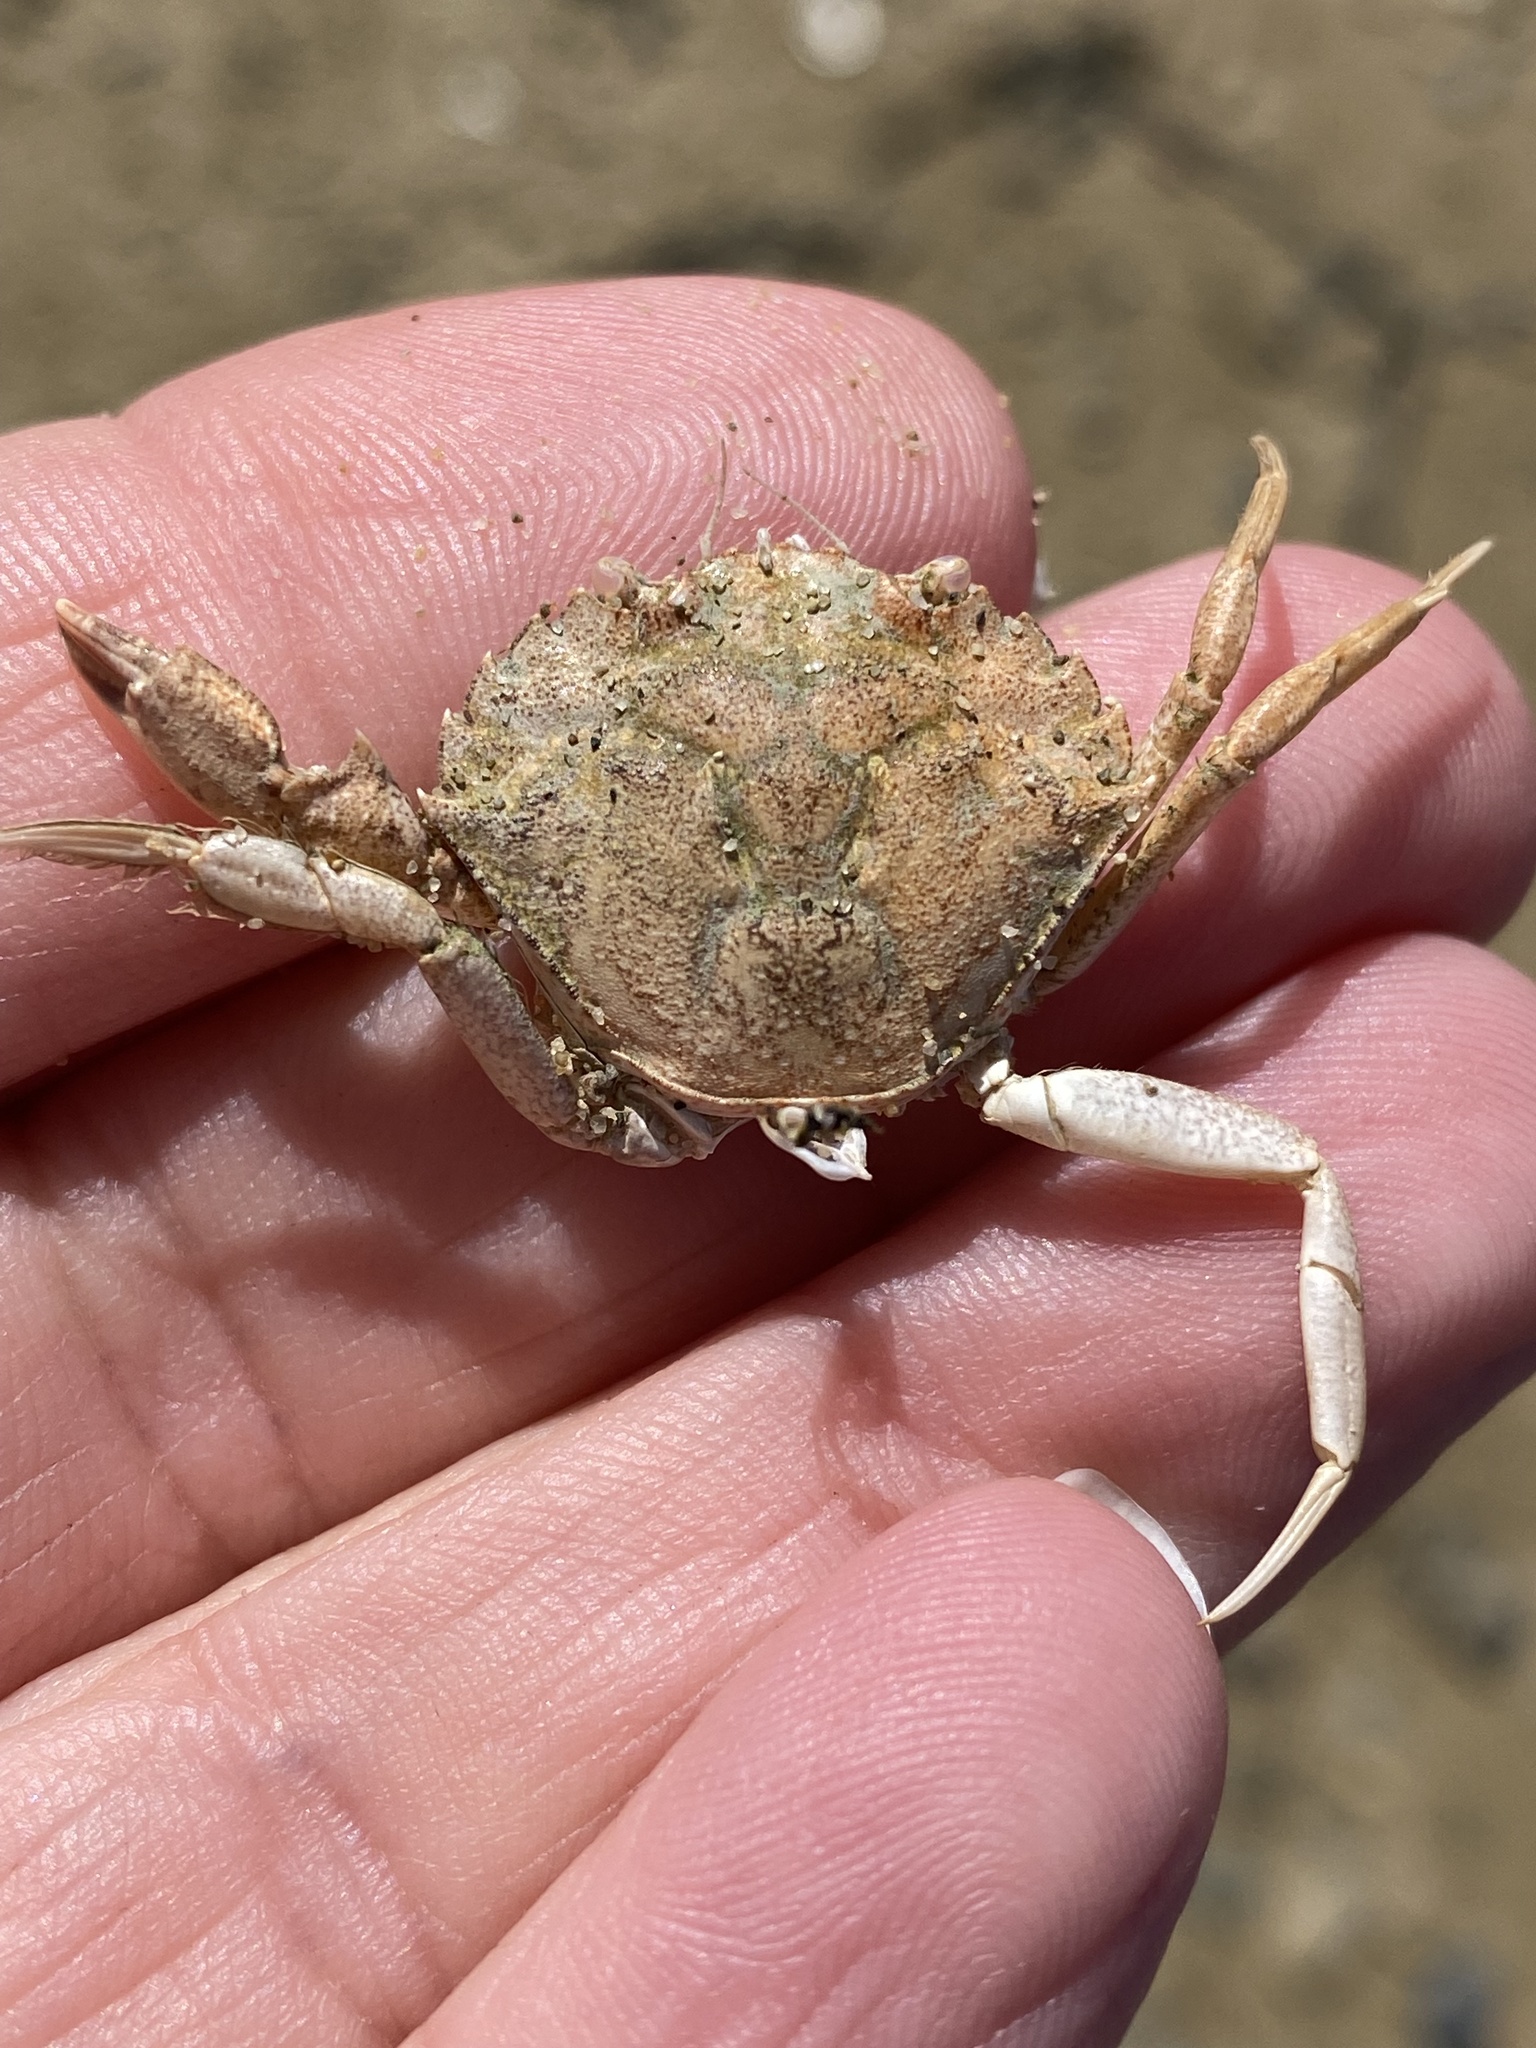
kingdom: Animalia
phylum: Arthropoda
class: Malacostraca
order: Decapoda
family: Carcinidae
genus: Carcinus
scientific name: Carcinus maenas
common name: European green crab
